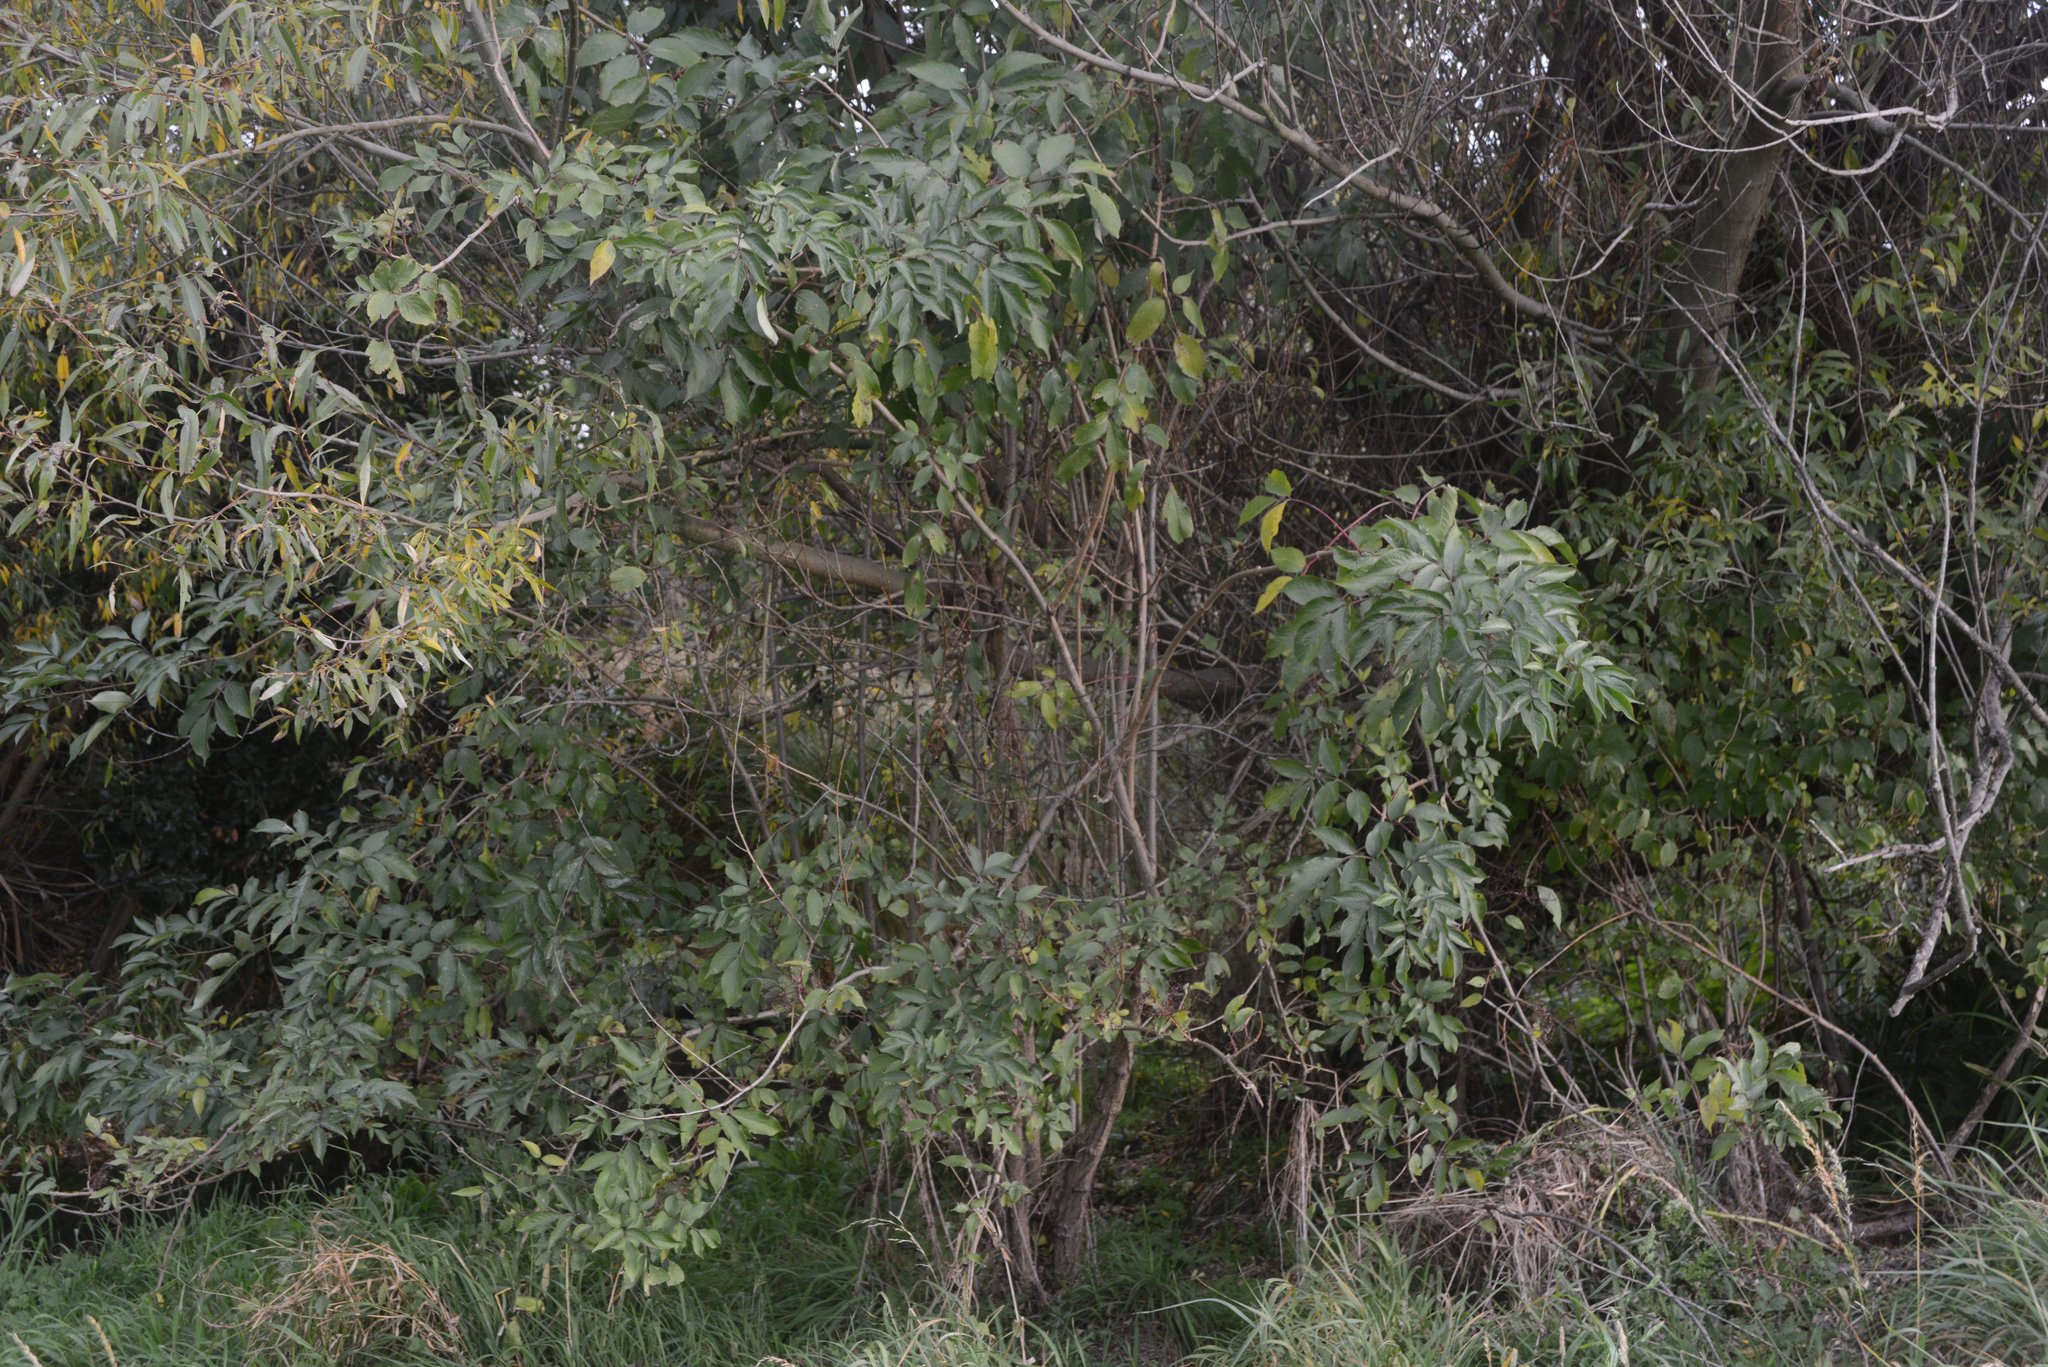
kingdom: Plantae
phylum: Tracheophyta
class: Magnoliopsida
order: Dipsacales
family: Viburnaceae
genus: Sambucus
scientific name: Sambucus nigra
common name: Elder
